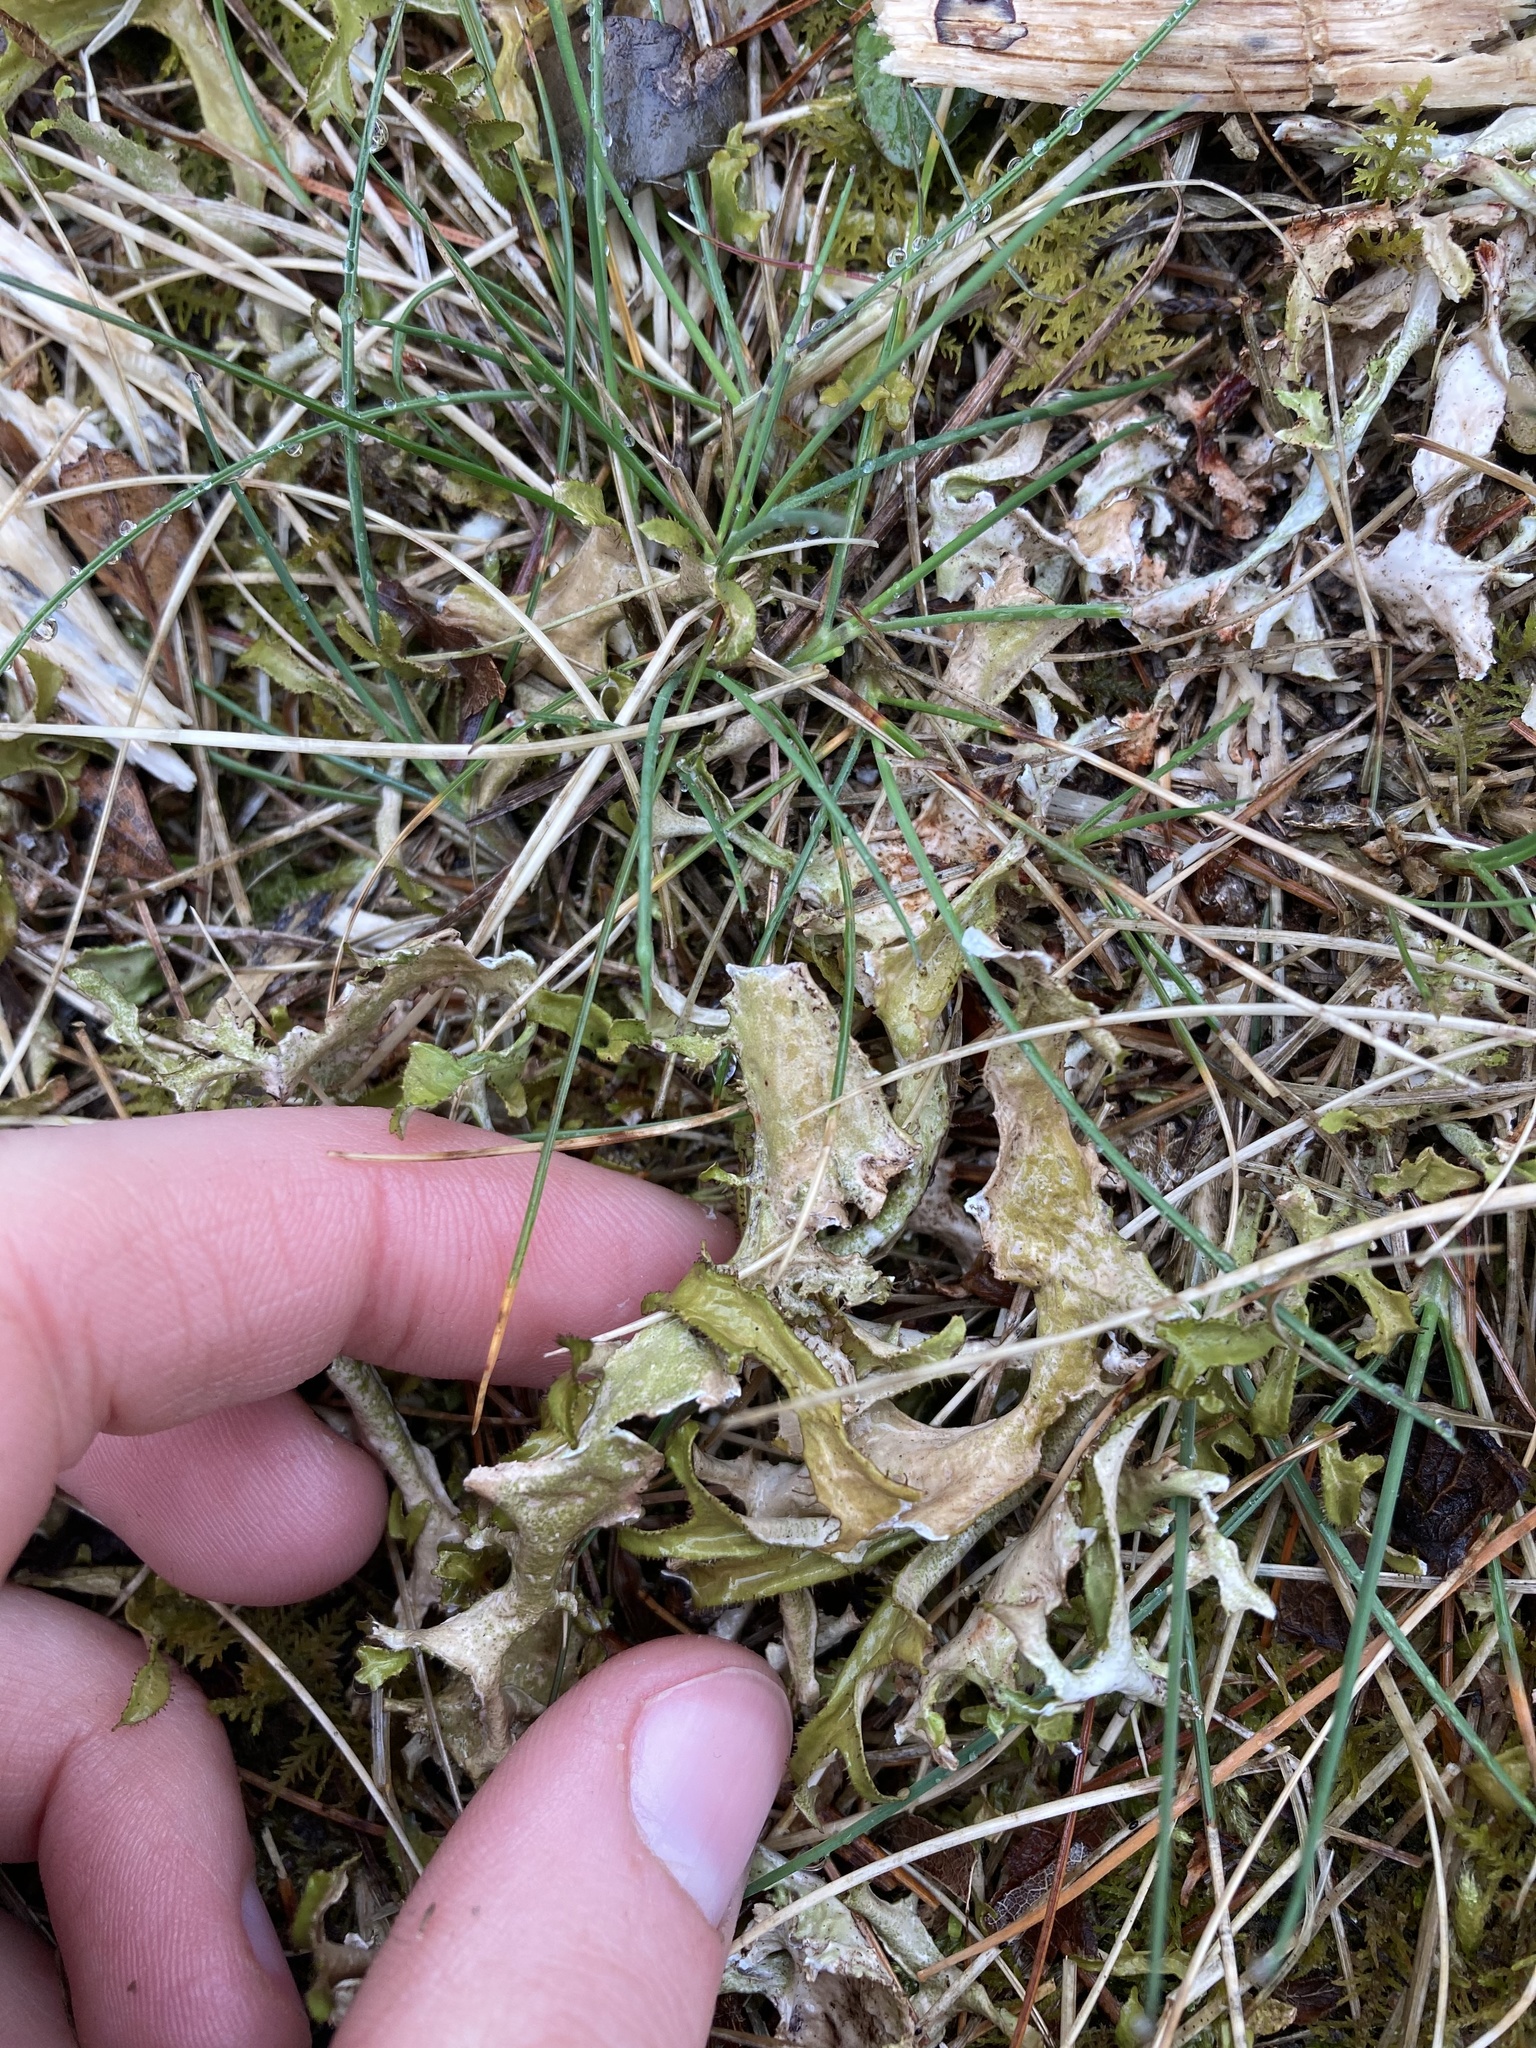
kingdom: Fungi
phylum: Ascomycota
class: Lecanoromycetes
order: Lecanorales
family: Parmeliaceae
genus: Cetraria
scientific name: Cetraria arenaria
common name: Sand-loving iceland lichen
